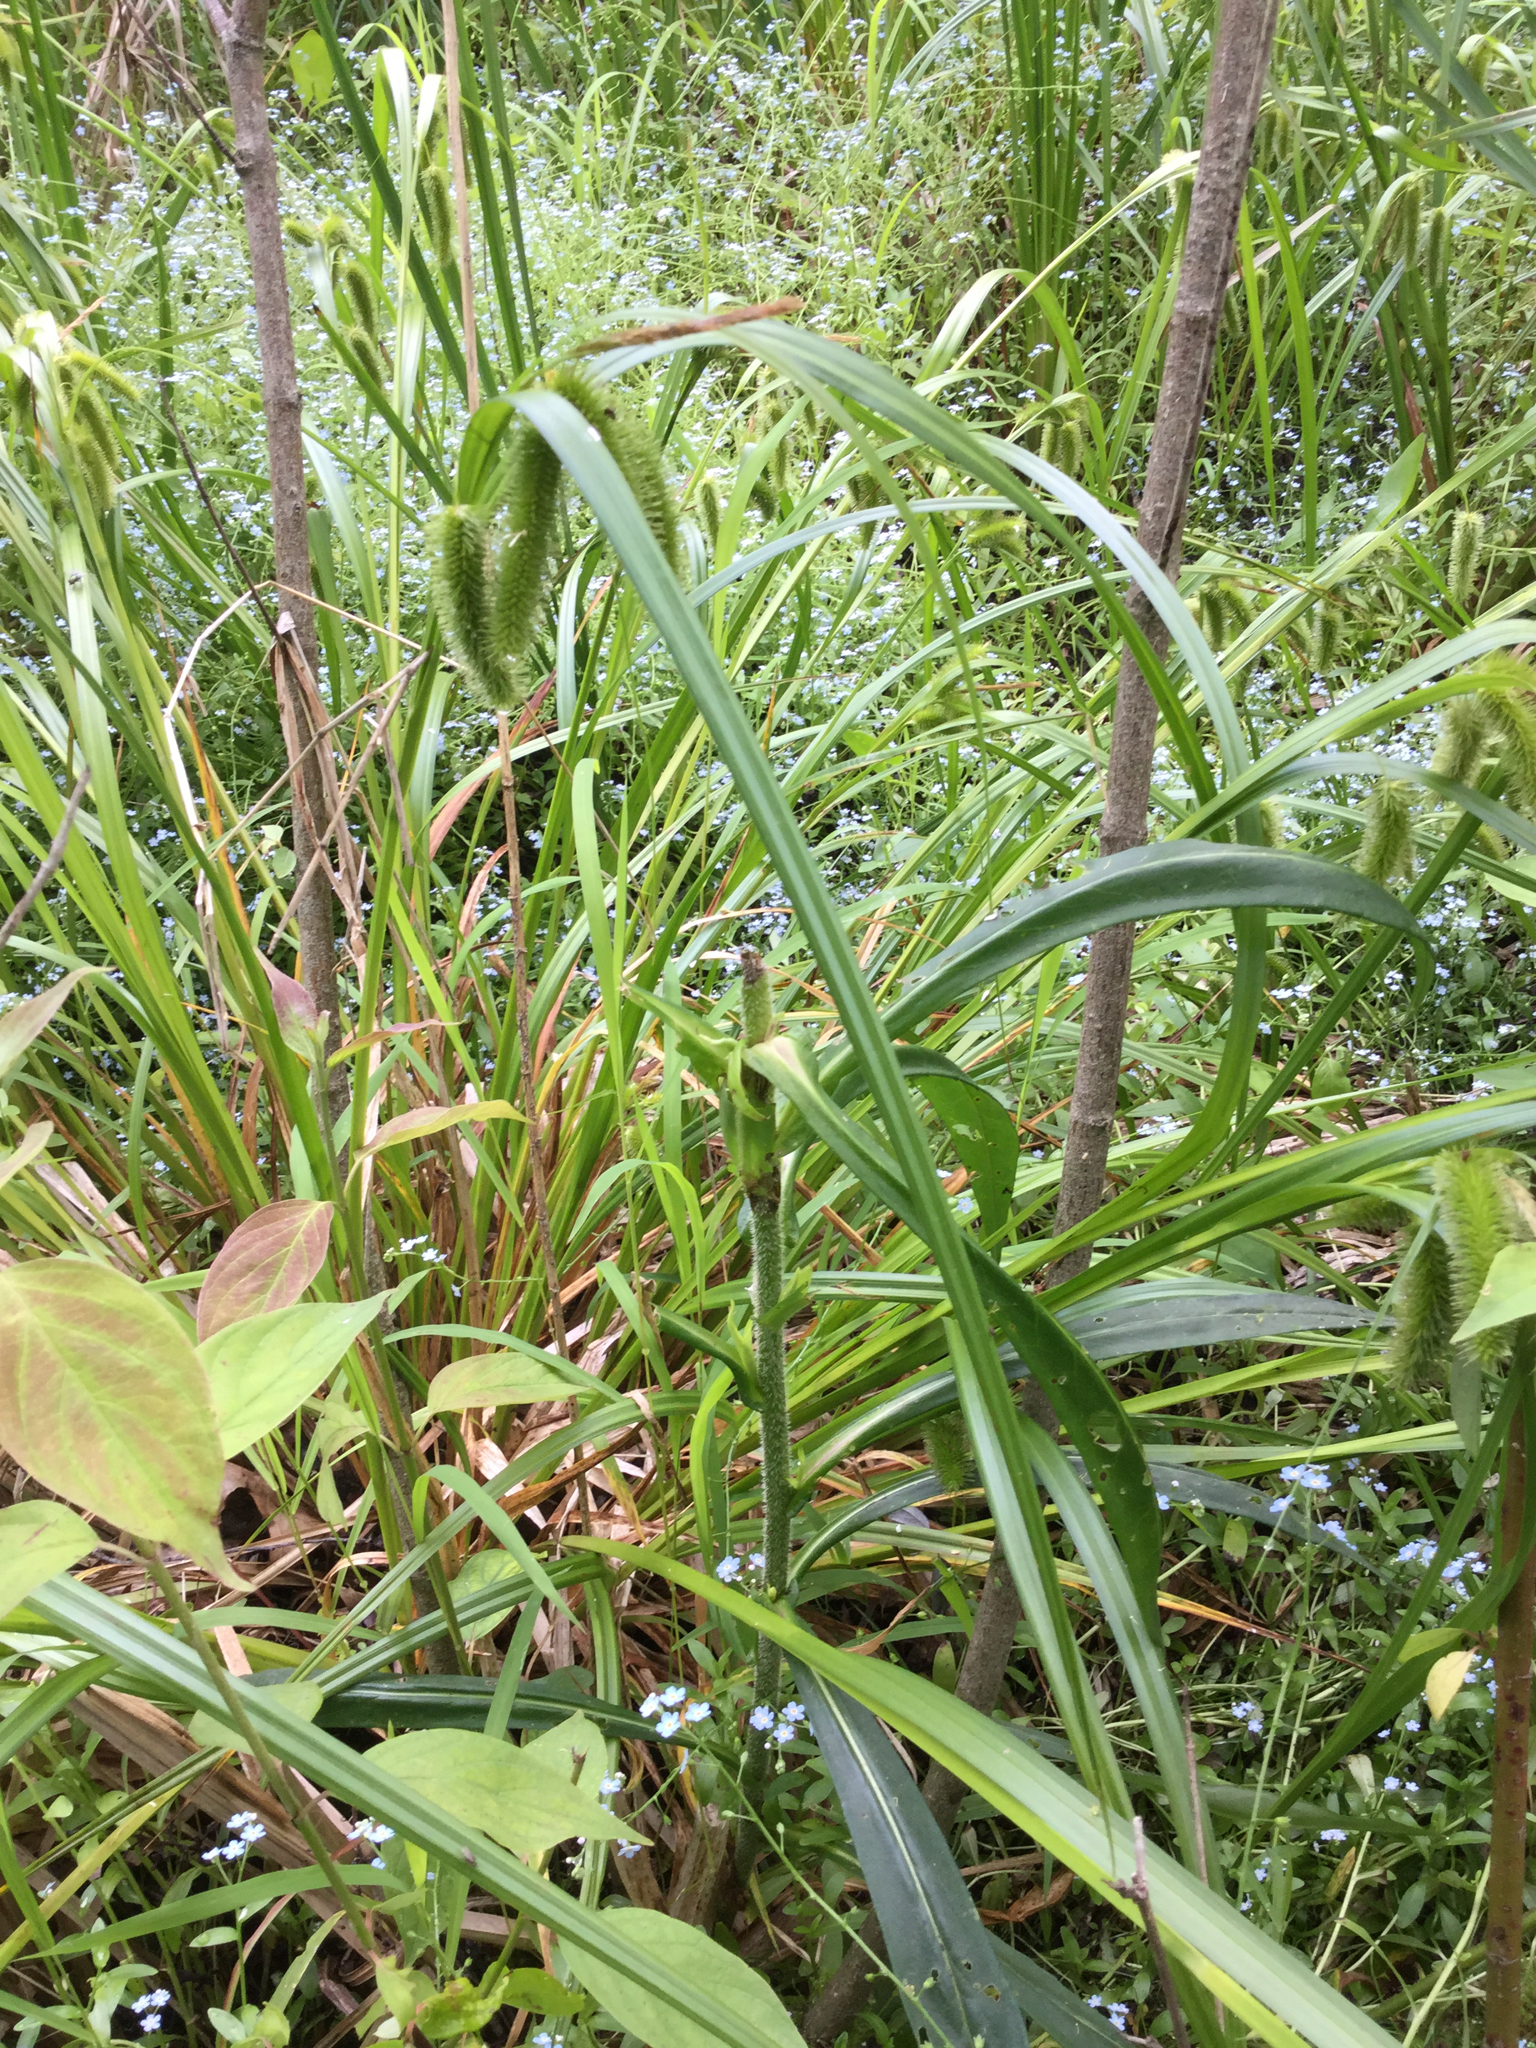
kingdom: Plantae
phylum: Tracheophyta
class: Magnoliopsida
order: Asterales
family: Asteraceae
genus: Symphyotrichum
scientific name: Symphyotrichum puniceum
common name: Bog aster
